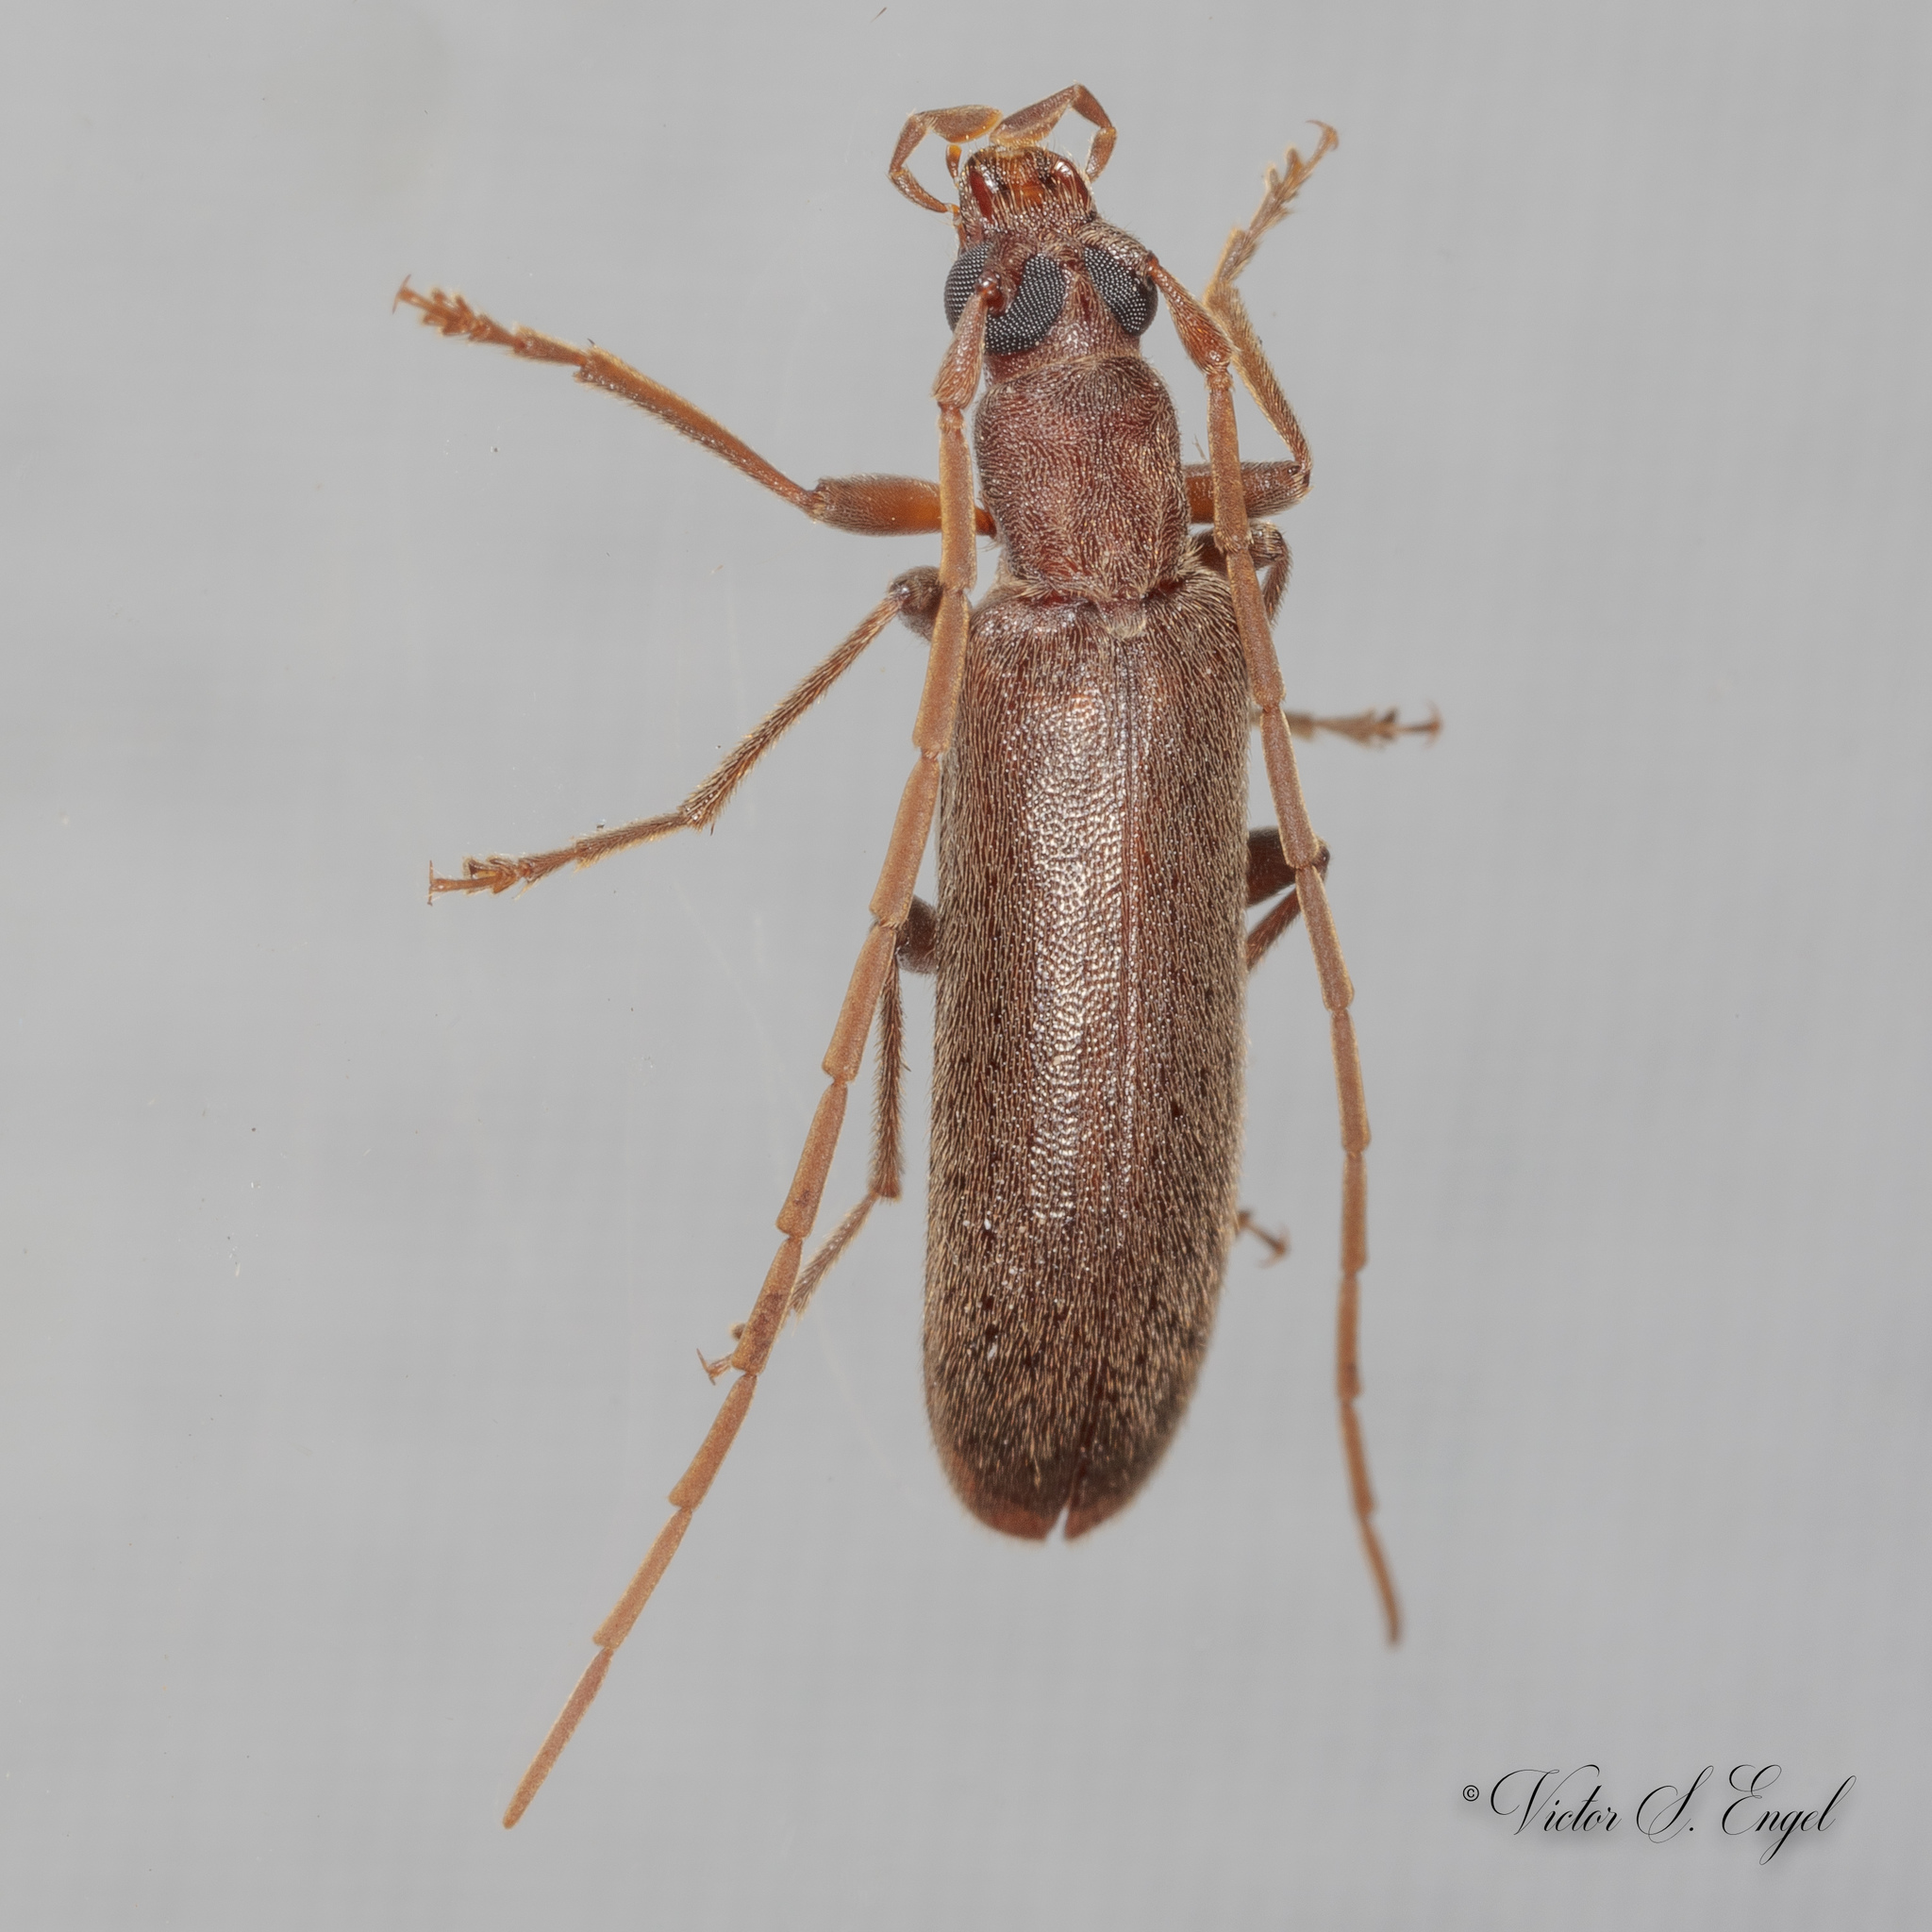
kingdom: Animalia
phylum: Arthropoda
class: Insecta
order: Coleoptera
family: Oedemeridae
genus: Sparedrus
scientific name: Sparedrus aspersus
